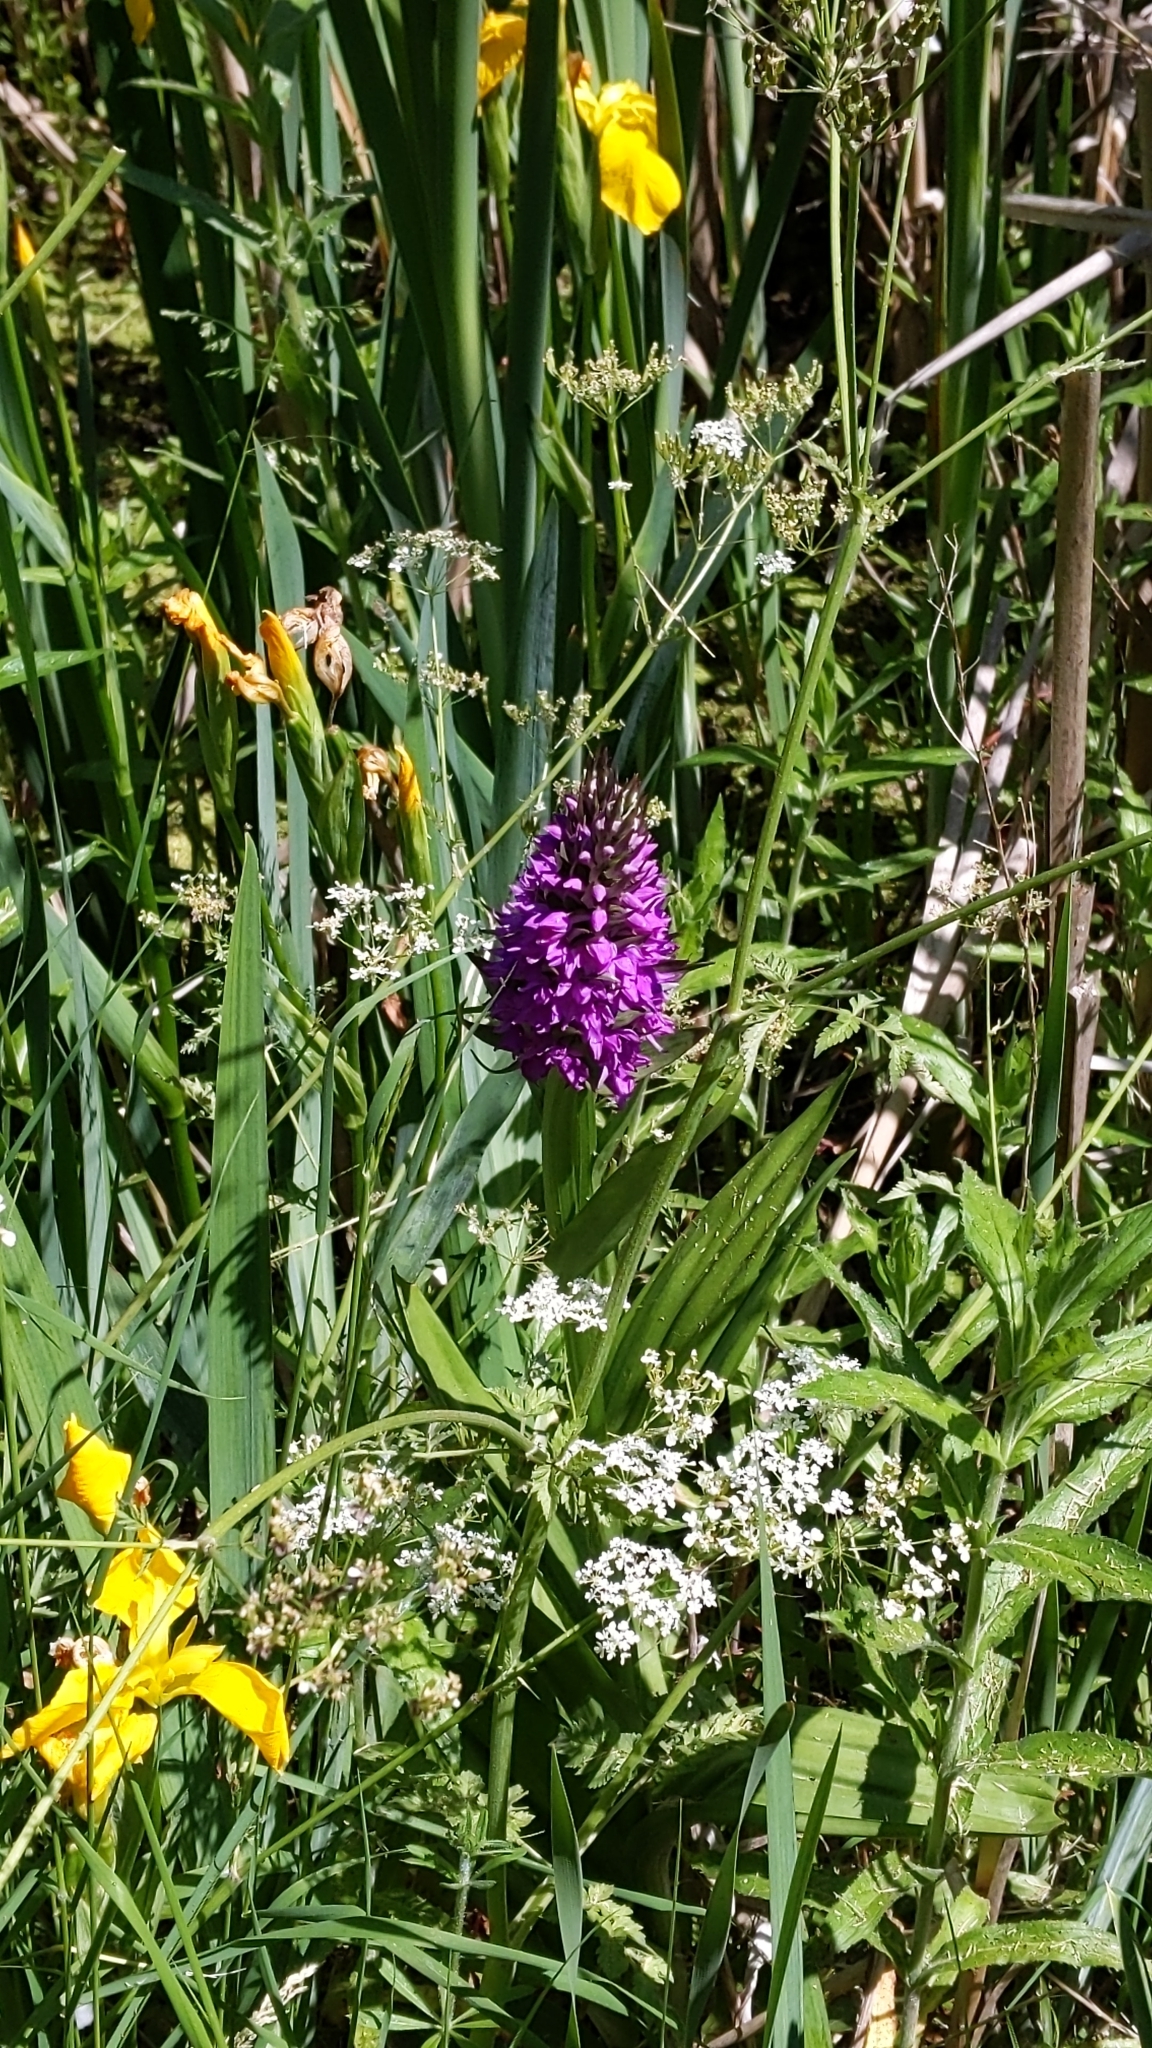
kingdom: Plantae
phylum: Tracheophyta
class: Liliopsida
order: Asparagales
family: Orchidaceae
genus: Anacamptis
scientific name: Anacamptis pyramidalis
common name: Pyramidal orchid
